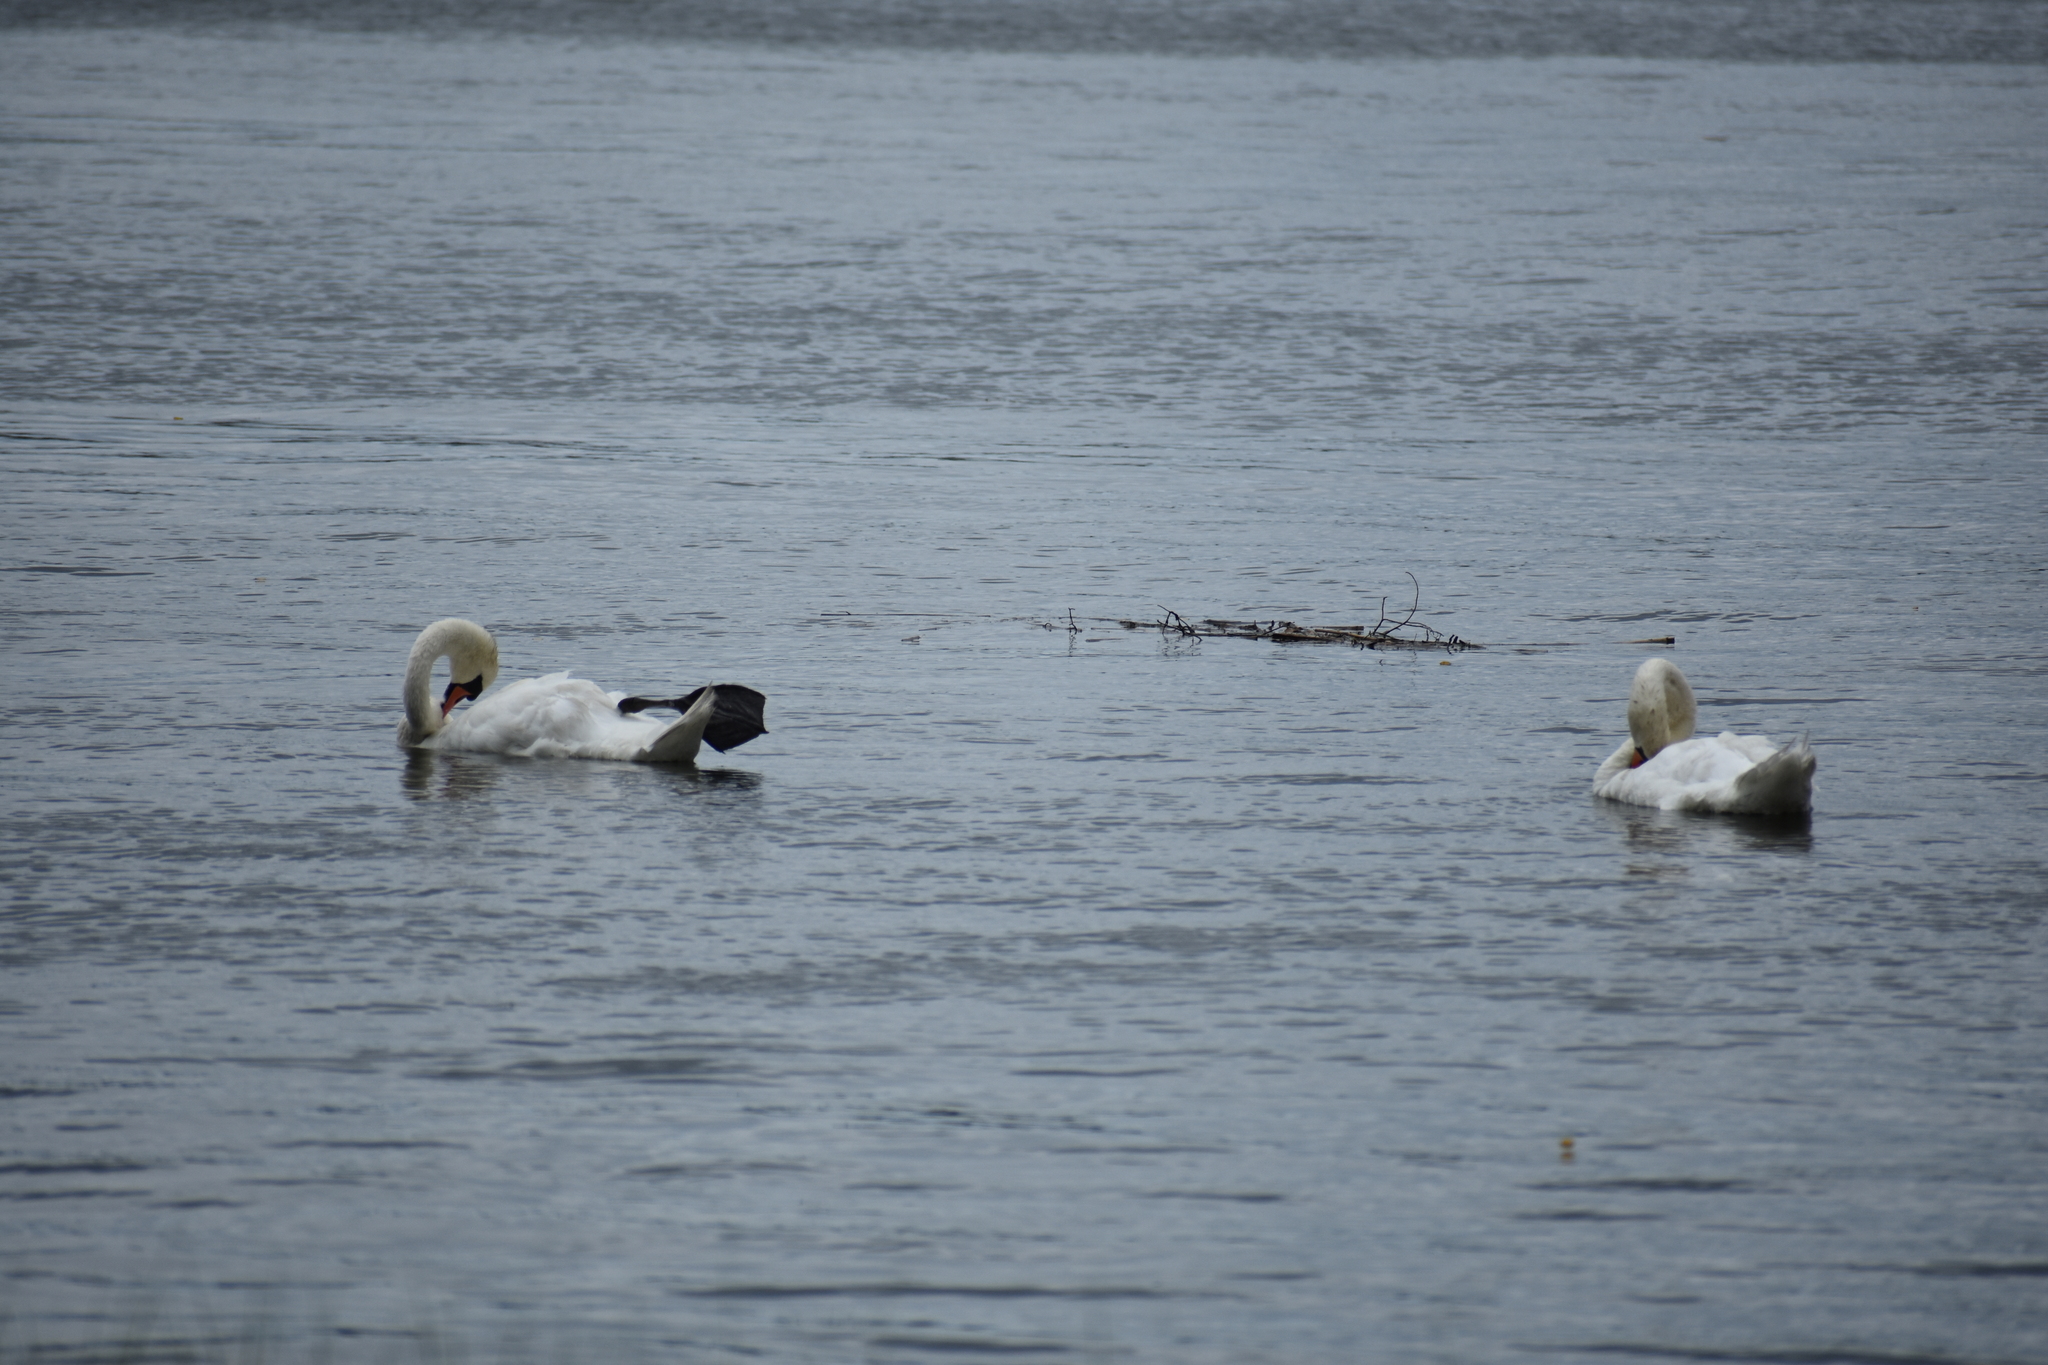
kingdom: Animalia
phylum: Chordata
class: Aves
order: Anseriformes
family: Anatidae
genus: Cygnus
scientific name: Cygnus olor
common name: Mute swan
